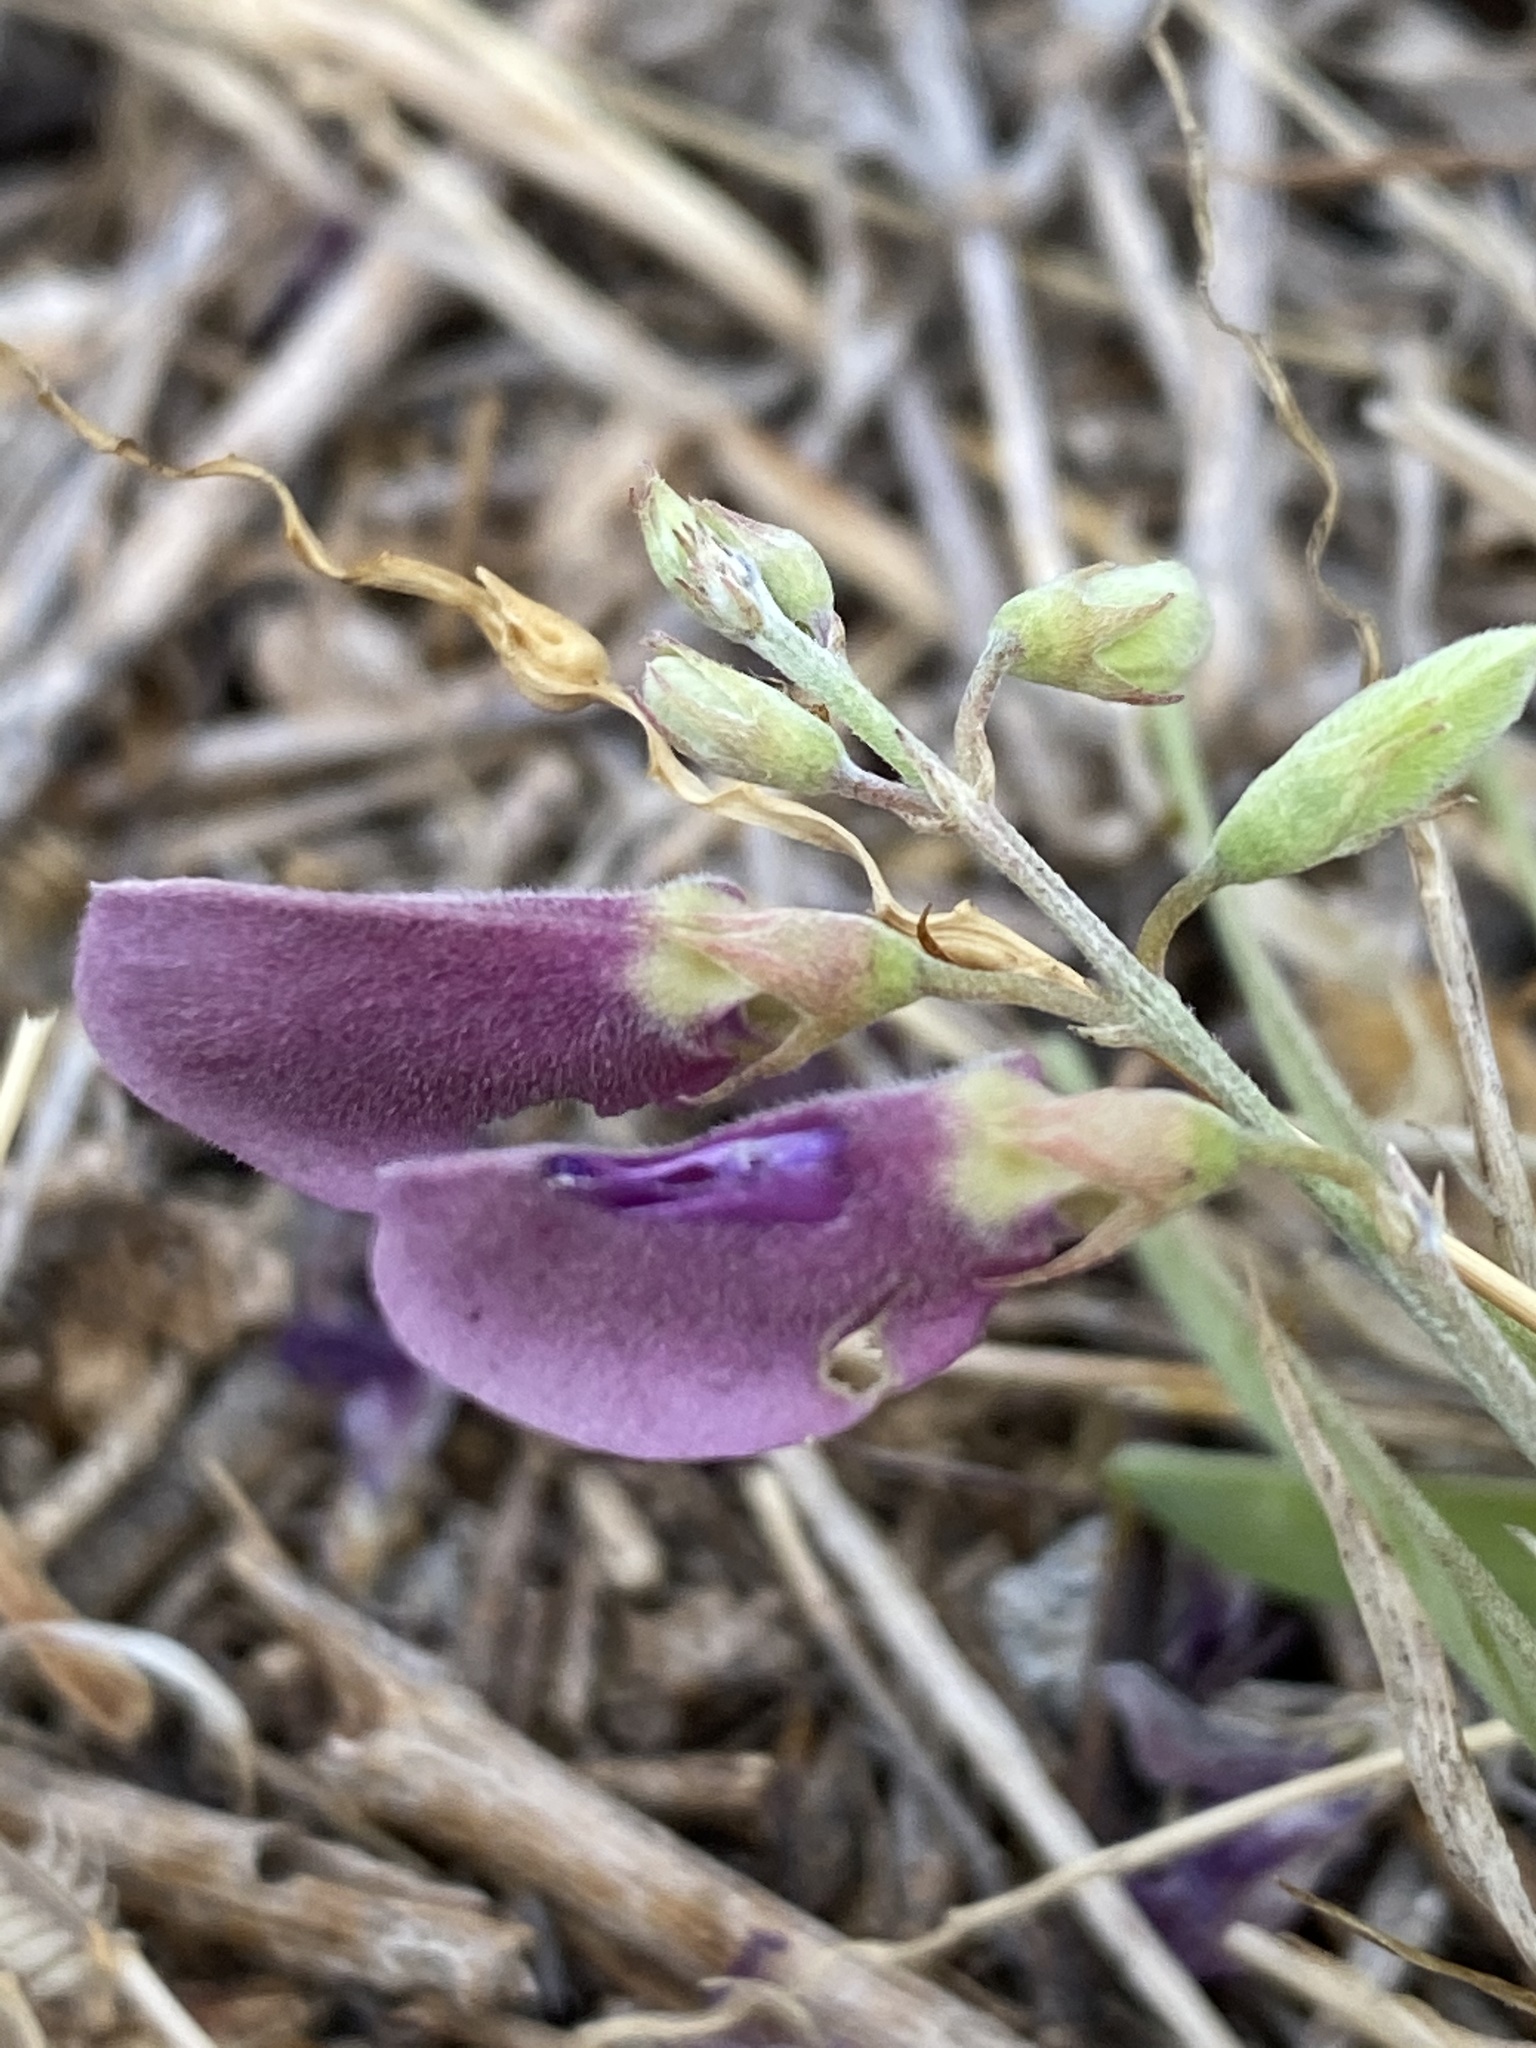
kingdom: Plantae
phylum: Tracheophyta
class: Magnoliopsida
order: Fabales
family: Fabaceae
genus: Tephrosia
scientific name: Tephrosia cinerea
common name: Ashen hoarypea
